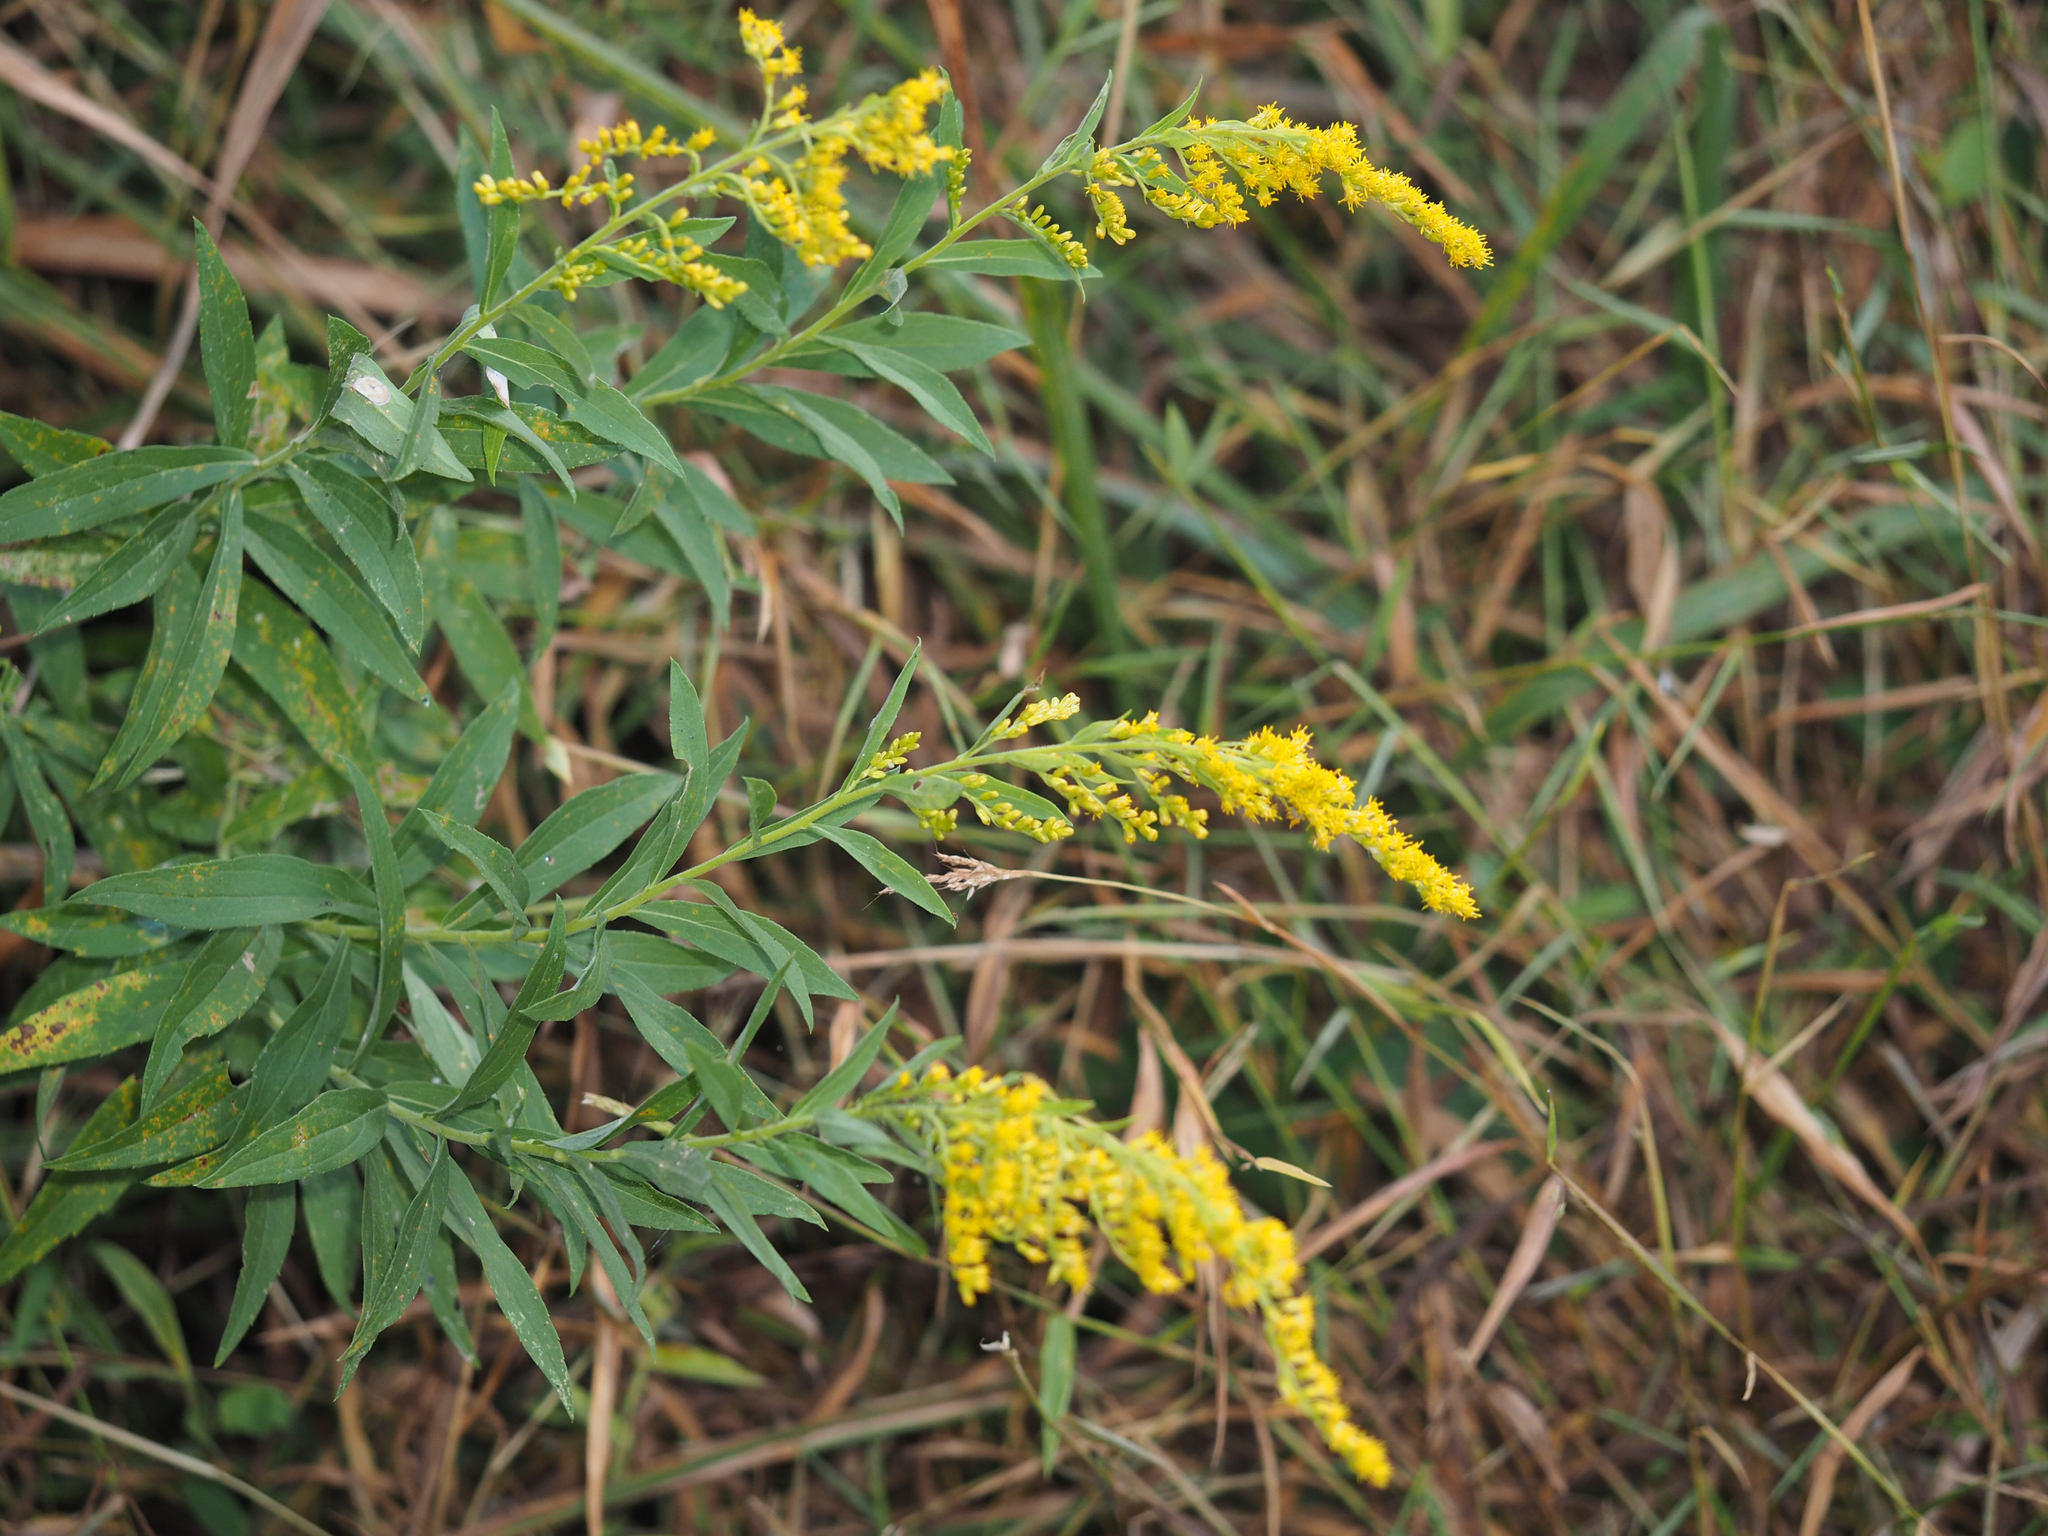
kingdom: Plantae
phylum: Tracheophyta
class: Magnoliopsida
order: Asterales
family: Asteraceae
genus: Solidago
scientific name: Solidago altissima
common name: Late goldenrod
